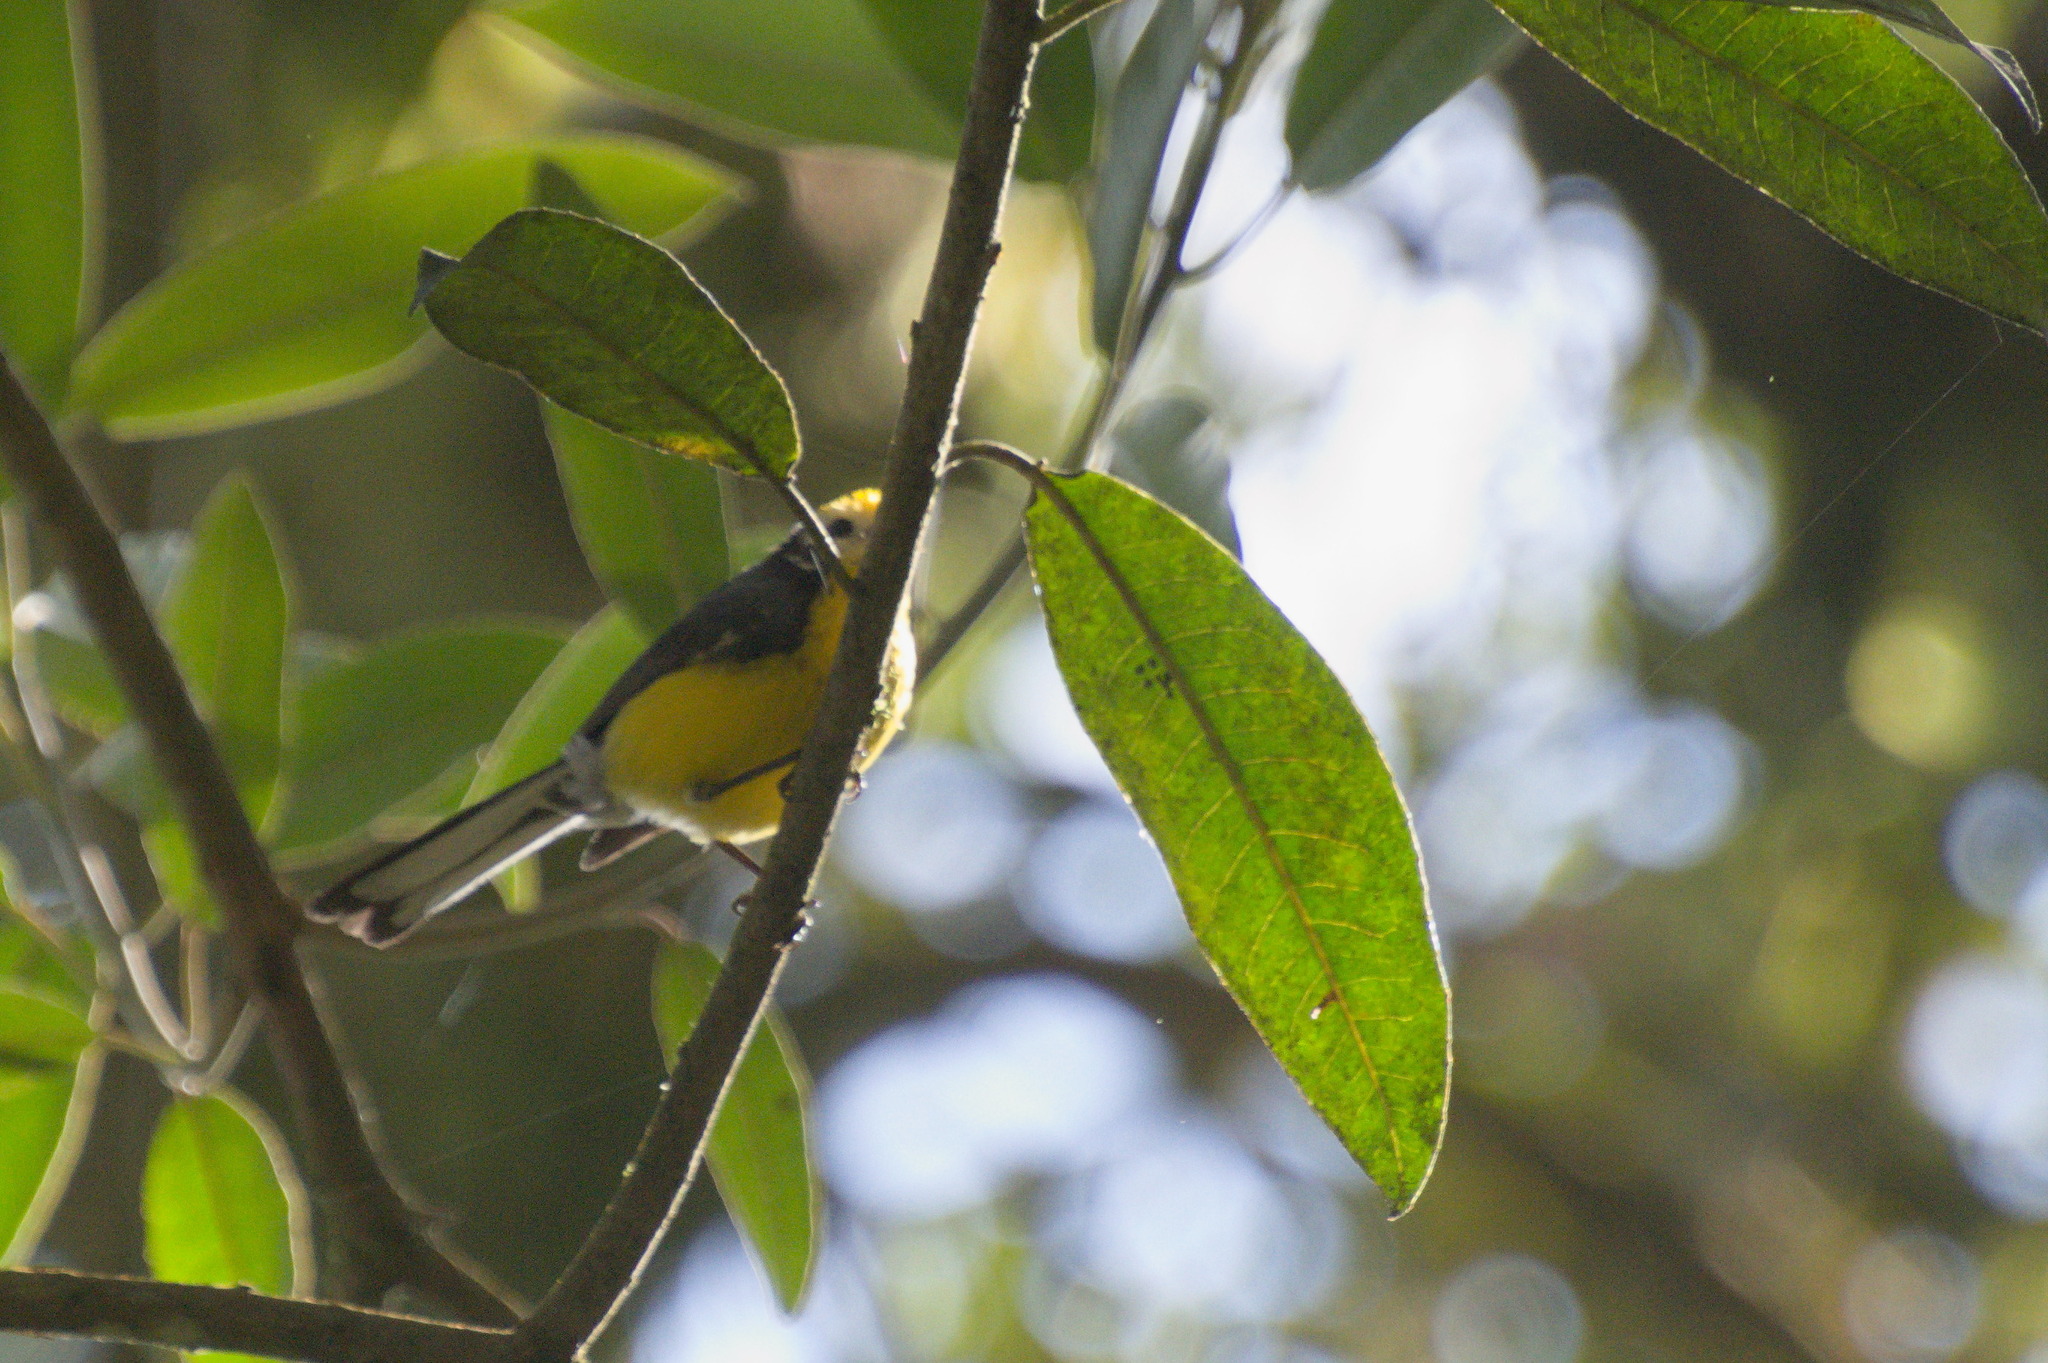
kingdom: Animalia
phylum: Chordata
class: Aves
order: Passeriformes
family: Parulidae
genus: Myioborus
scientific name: Myioborus ornatus
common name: Golden-fronted whitestart
